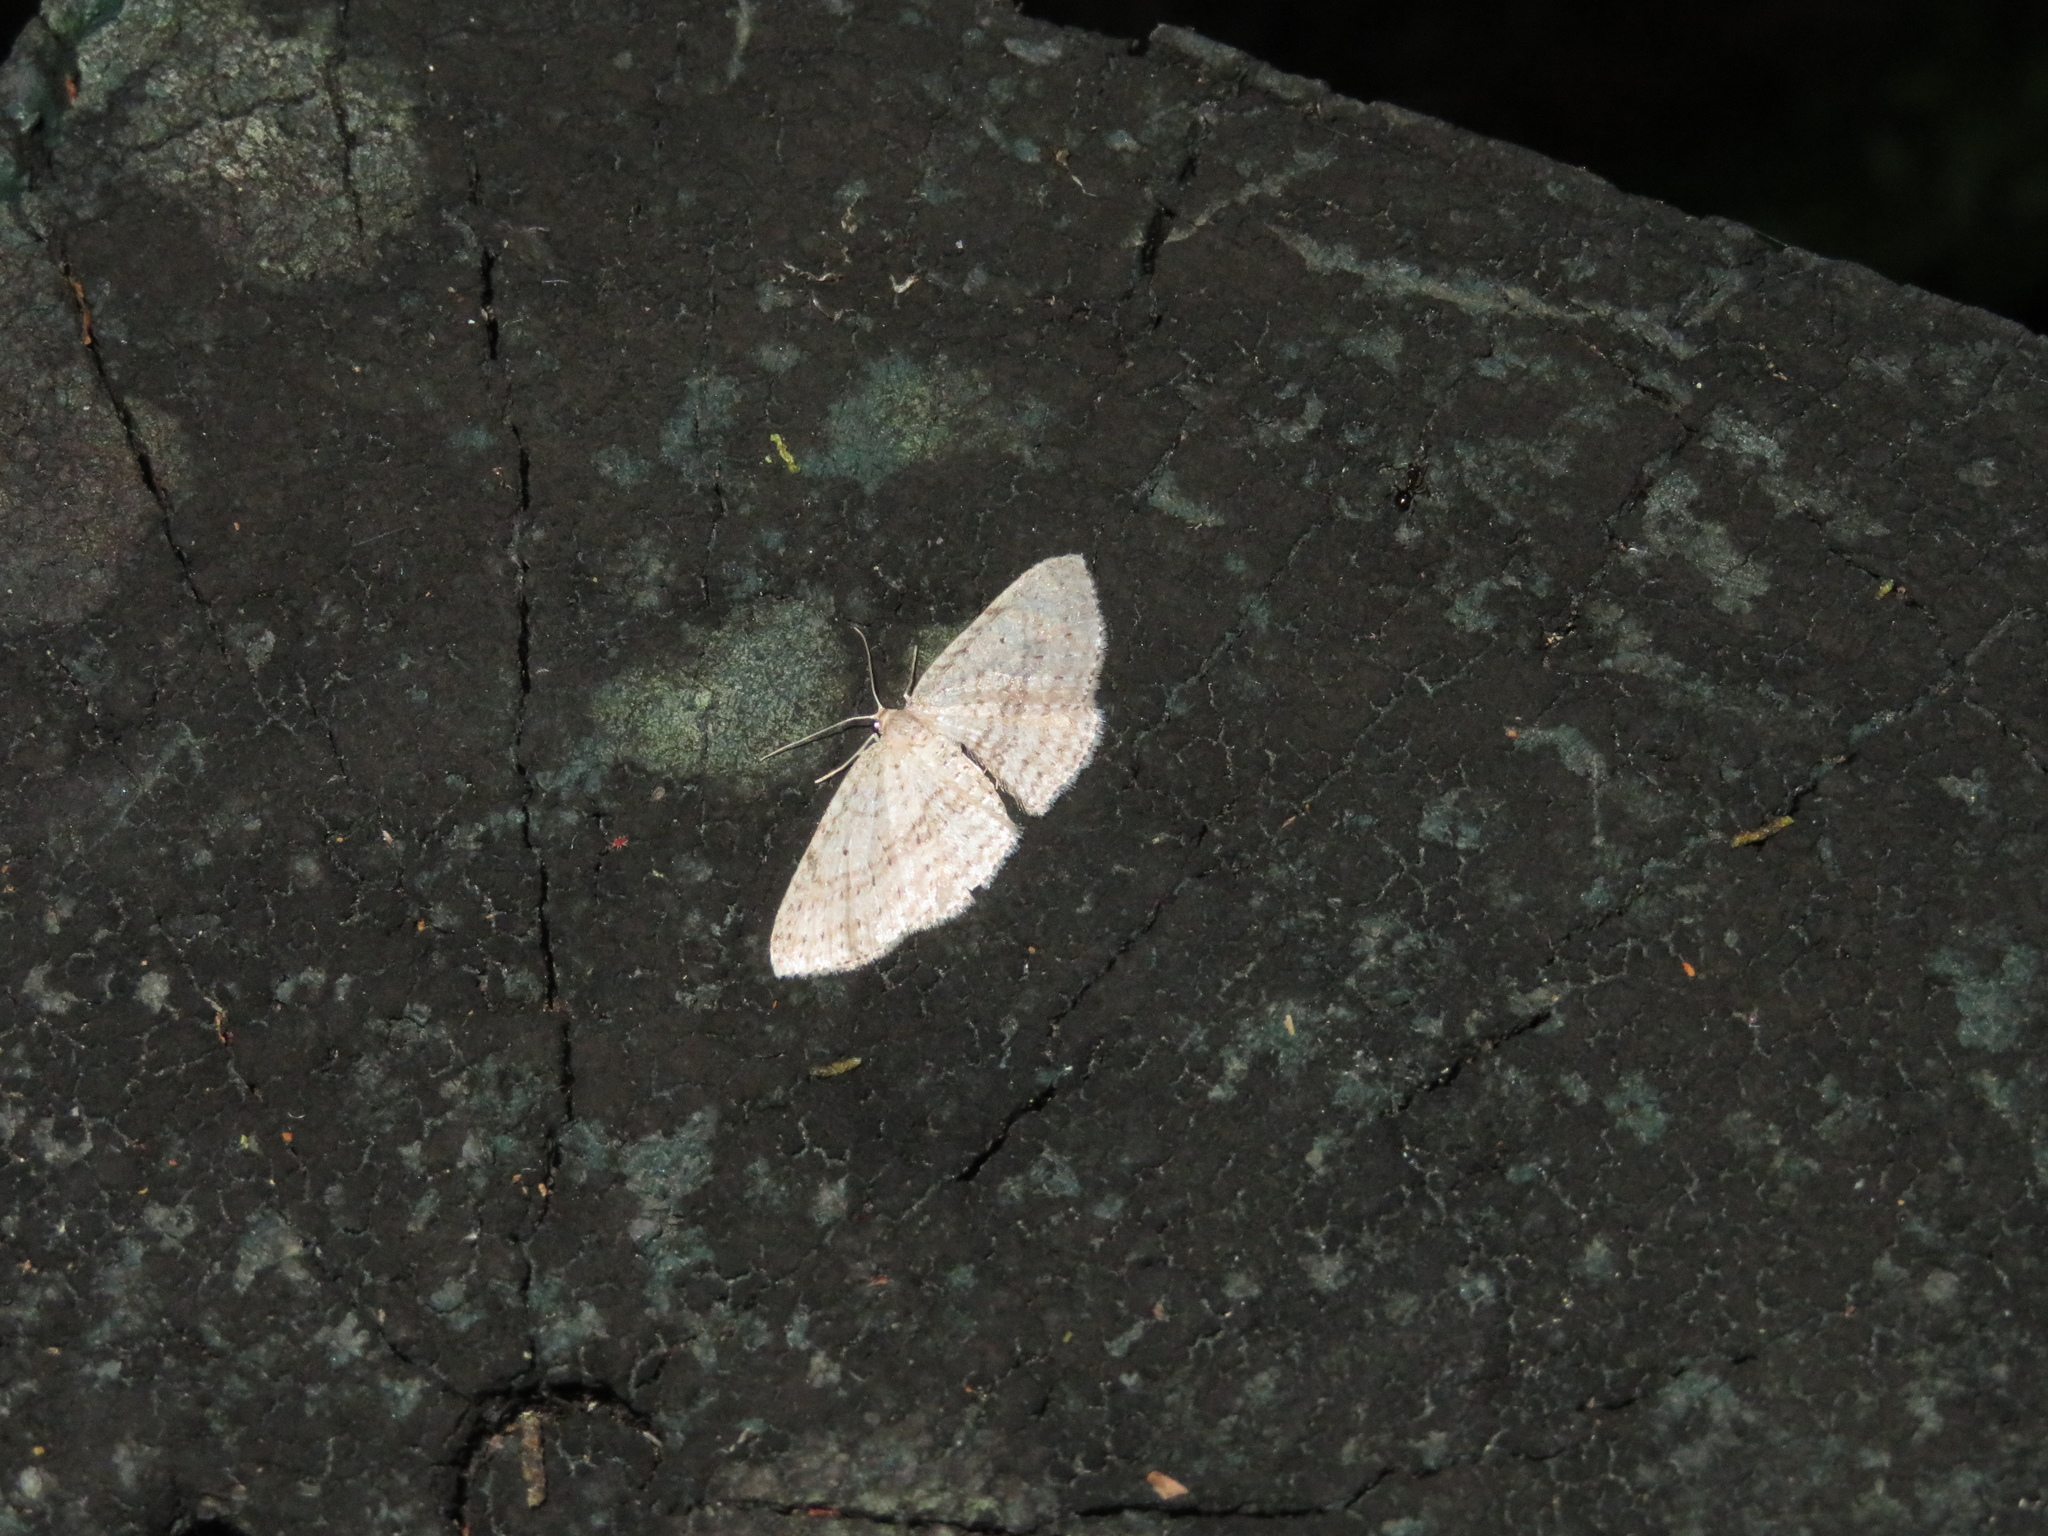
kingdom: Animalia
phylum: Arthropoda
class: Insecta
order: Lepidoptera
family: Geometridae
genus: Poecilasthena
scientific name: Poecilasthena schistaria
